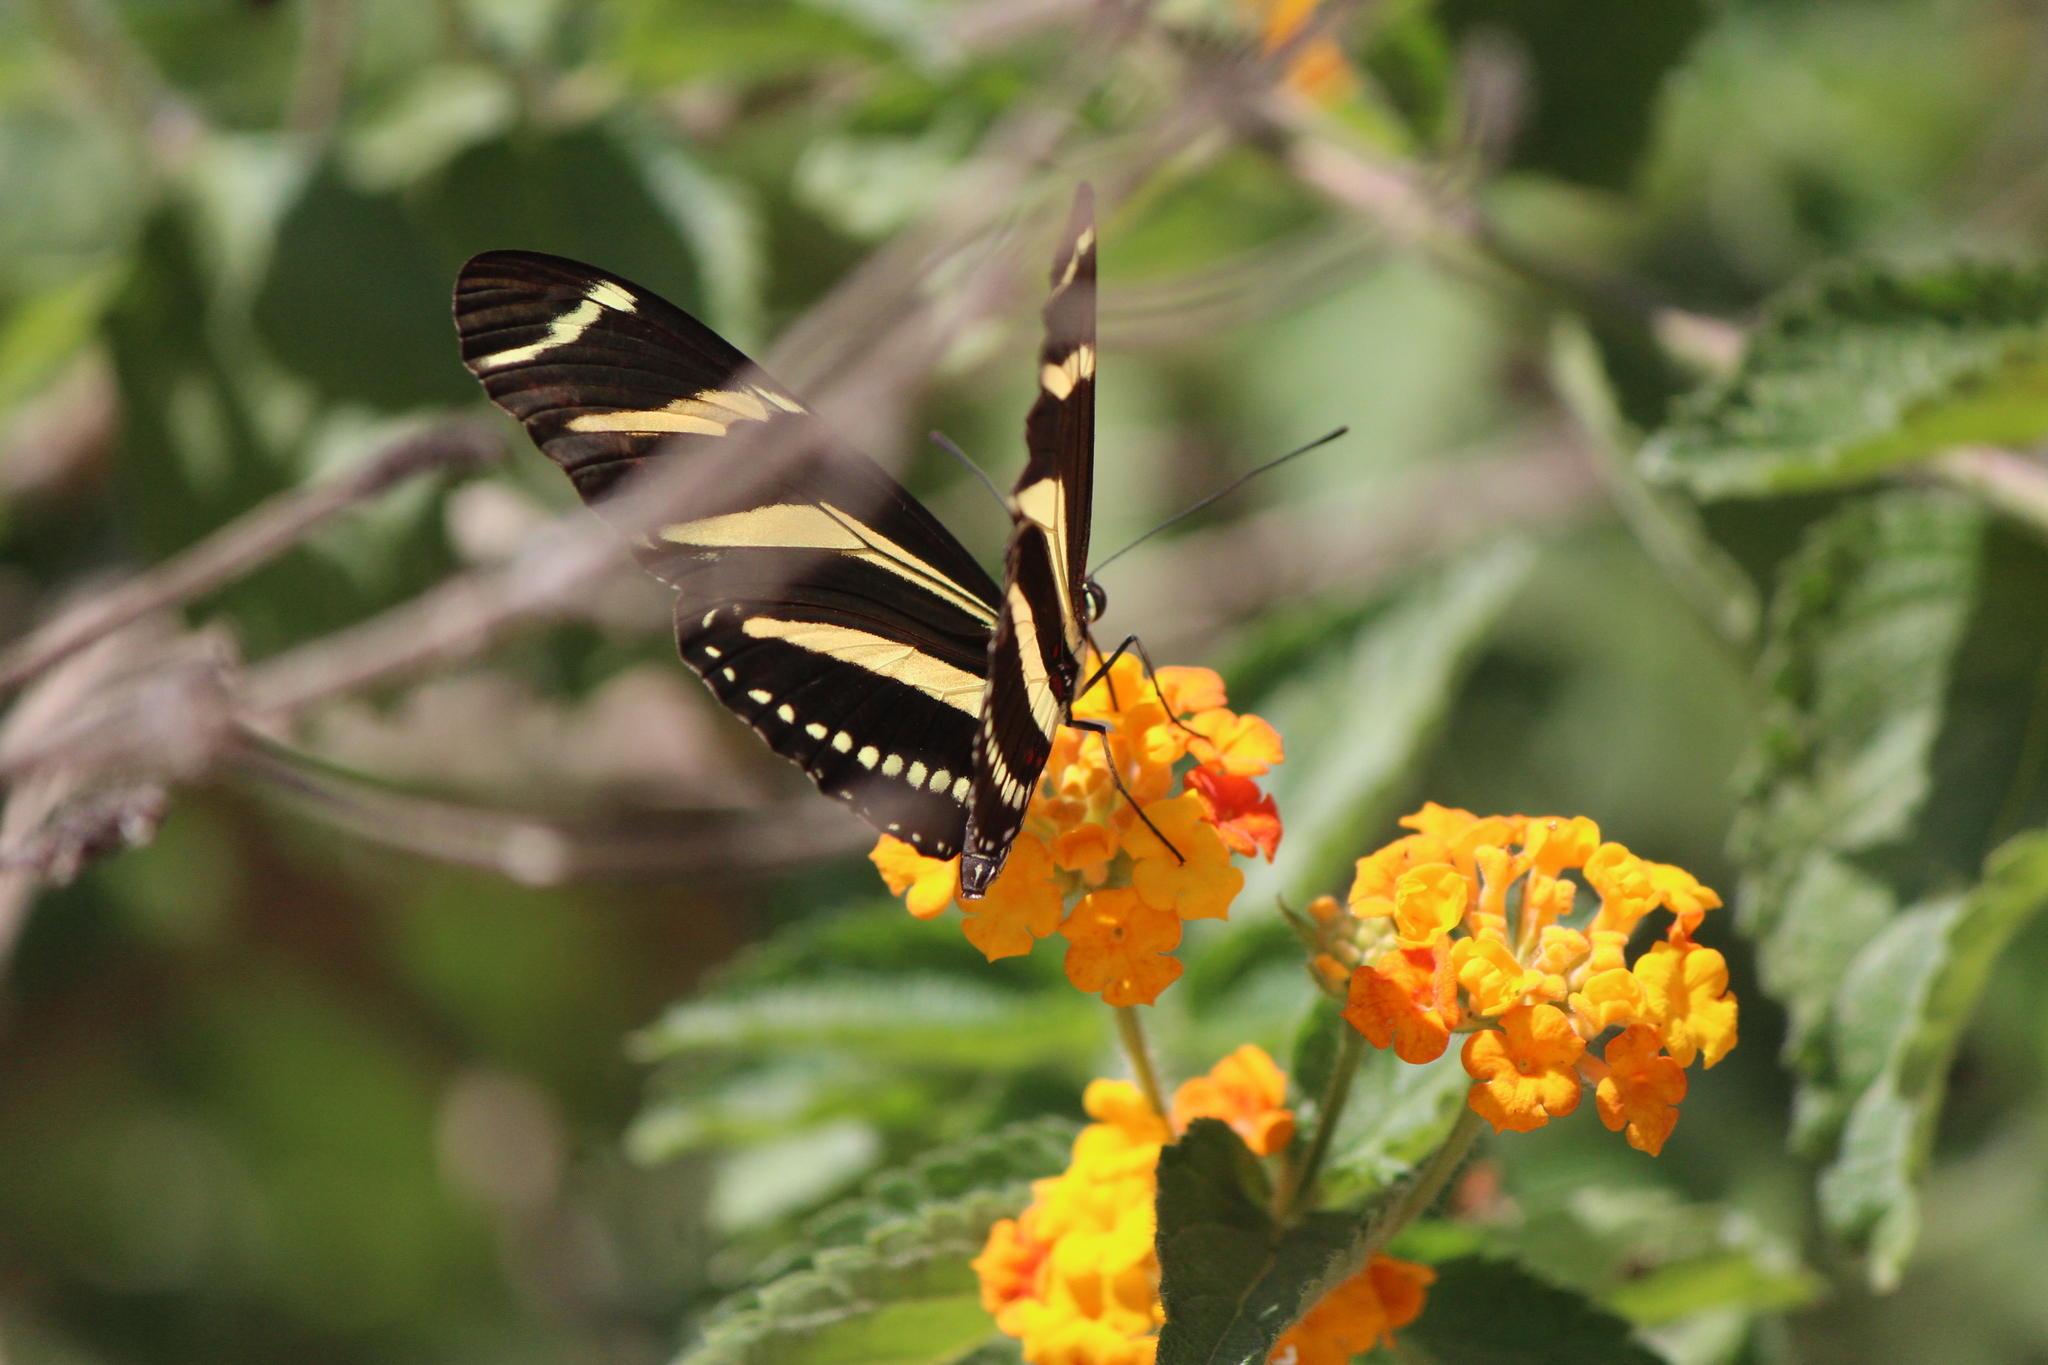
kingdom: Animalia
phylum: Arthropoda
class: Insecta
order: Lepidoptera
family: Nymphalidae
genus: Heliconius
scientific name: Heliconius charithonia
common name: Zebra long wing
